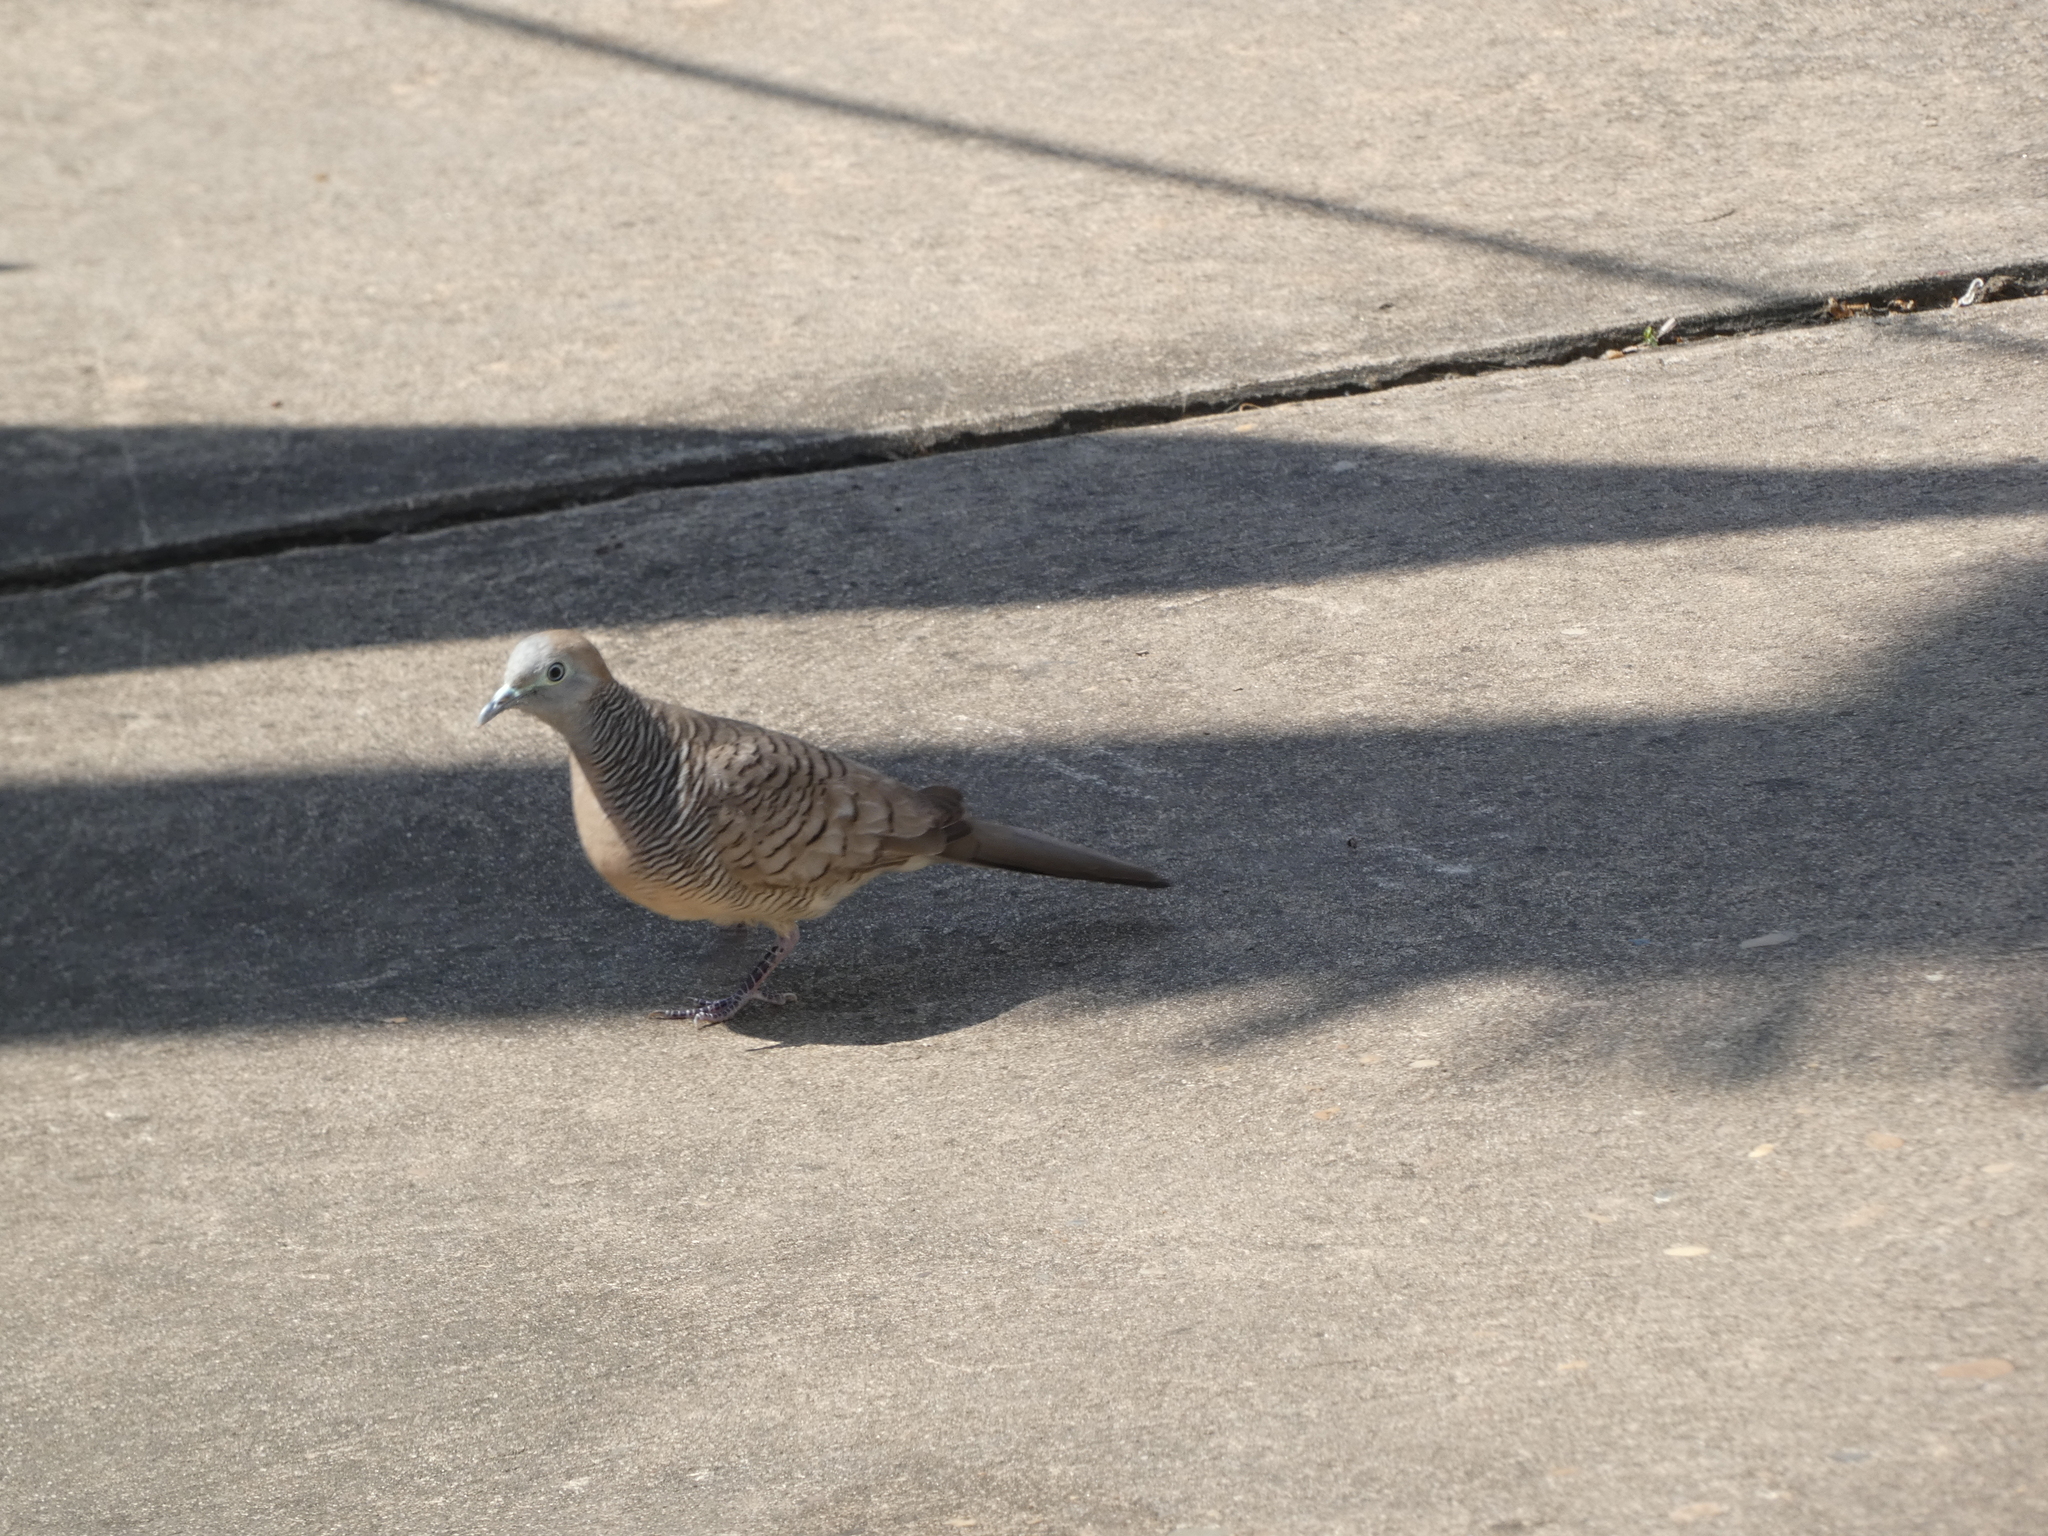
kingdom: Animalia
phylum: Chordata
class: Aves
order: Columbiformes
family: Columbidae
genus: Geopelia
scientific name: Geopelia striata
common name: Zebra dove
